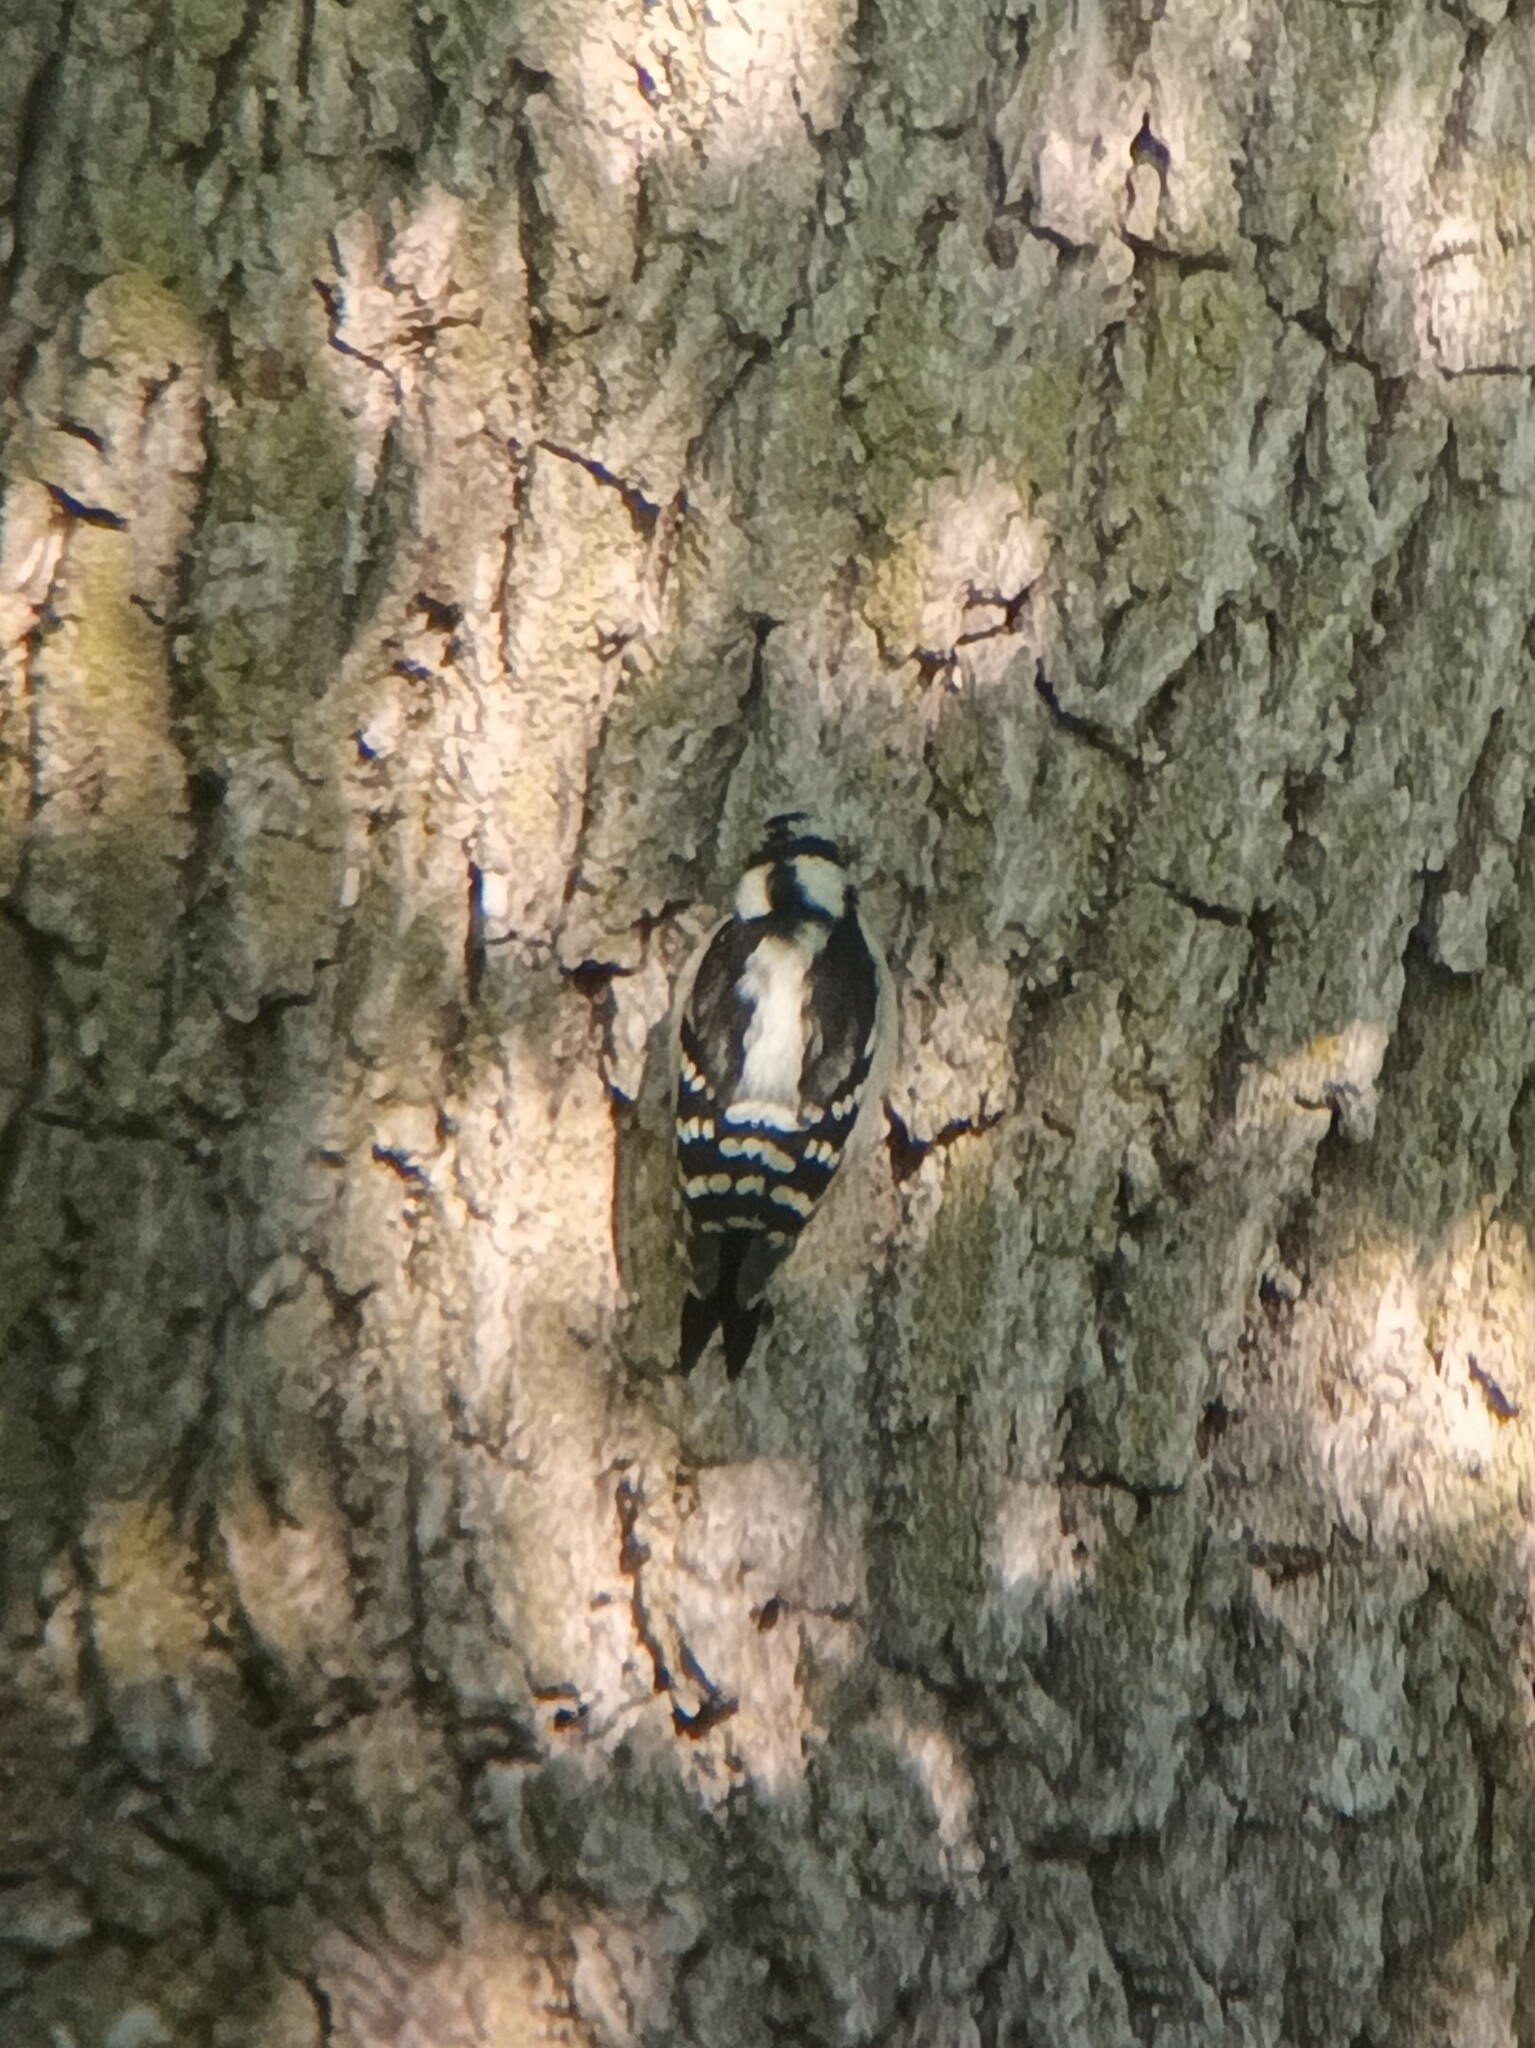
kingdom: Animalia
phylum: Chordata
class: Aves
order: Piciformes
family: Picidae
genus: Dryobates
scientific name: Dryobates pubescens
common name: Downy woodpecker
